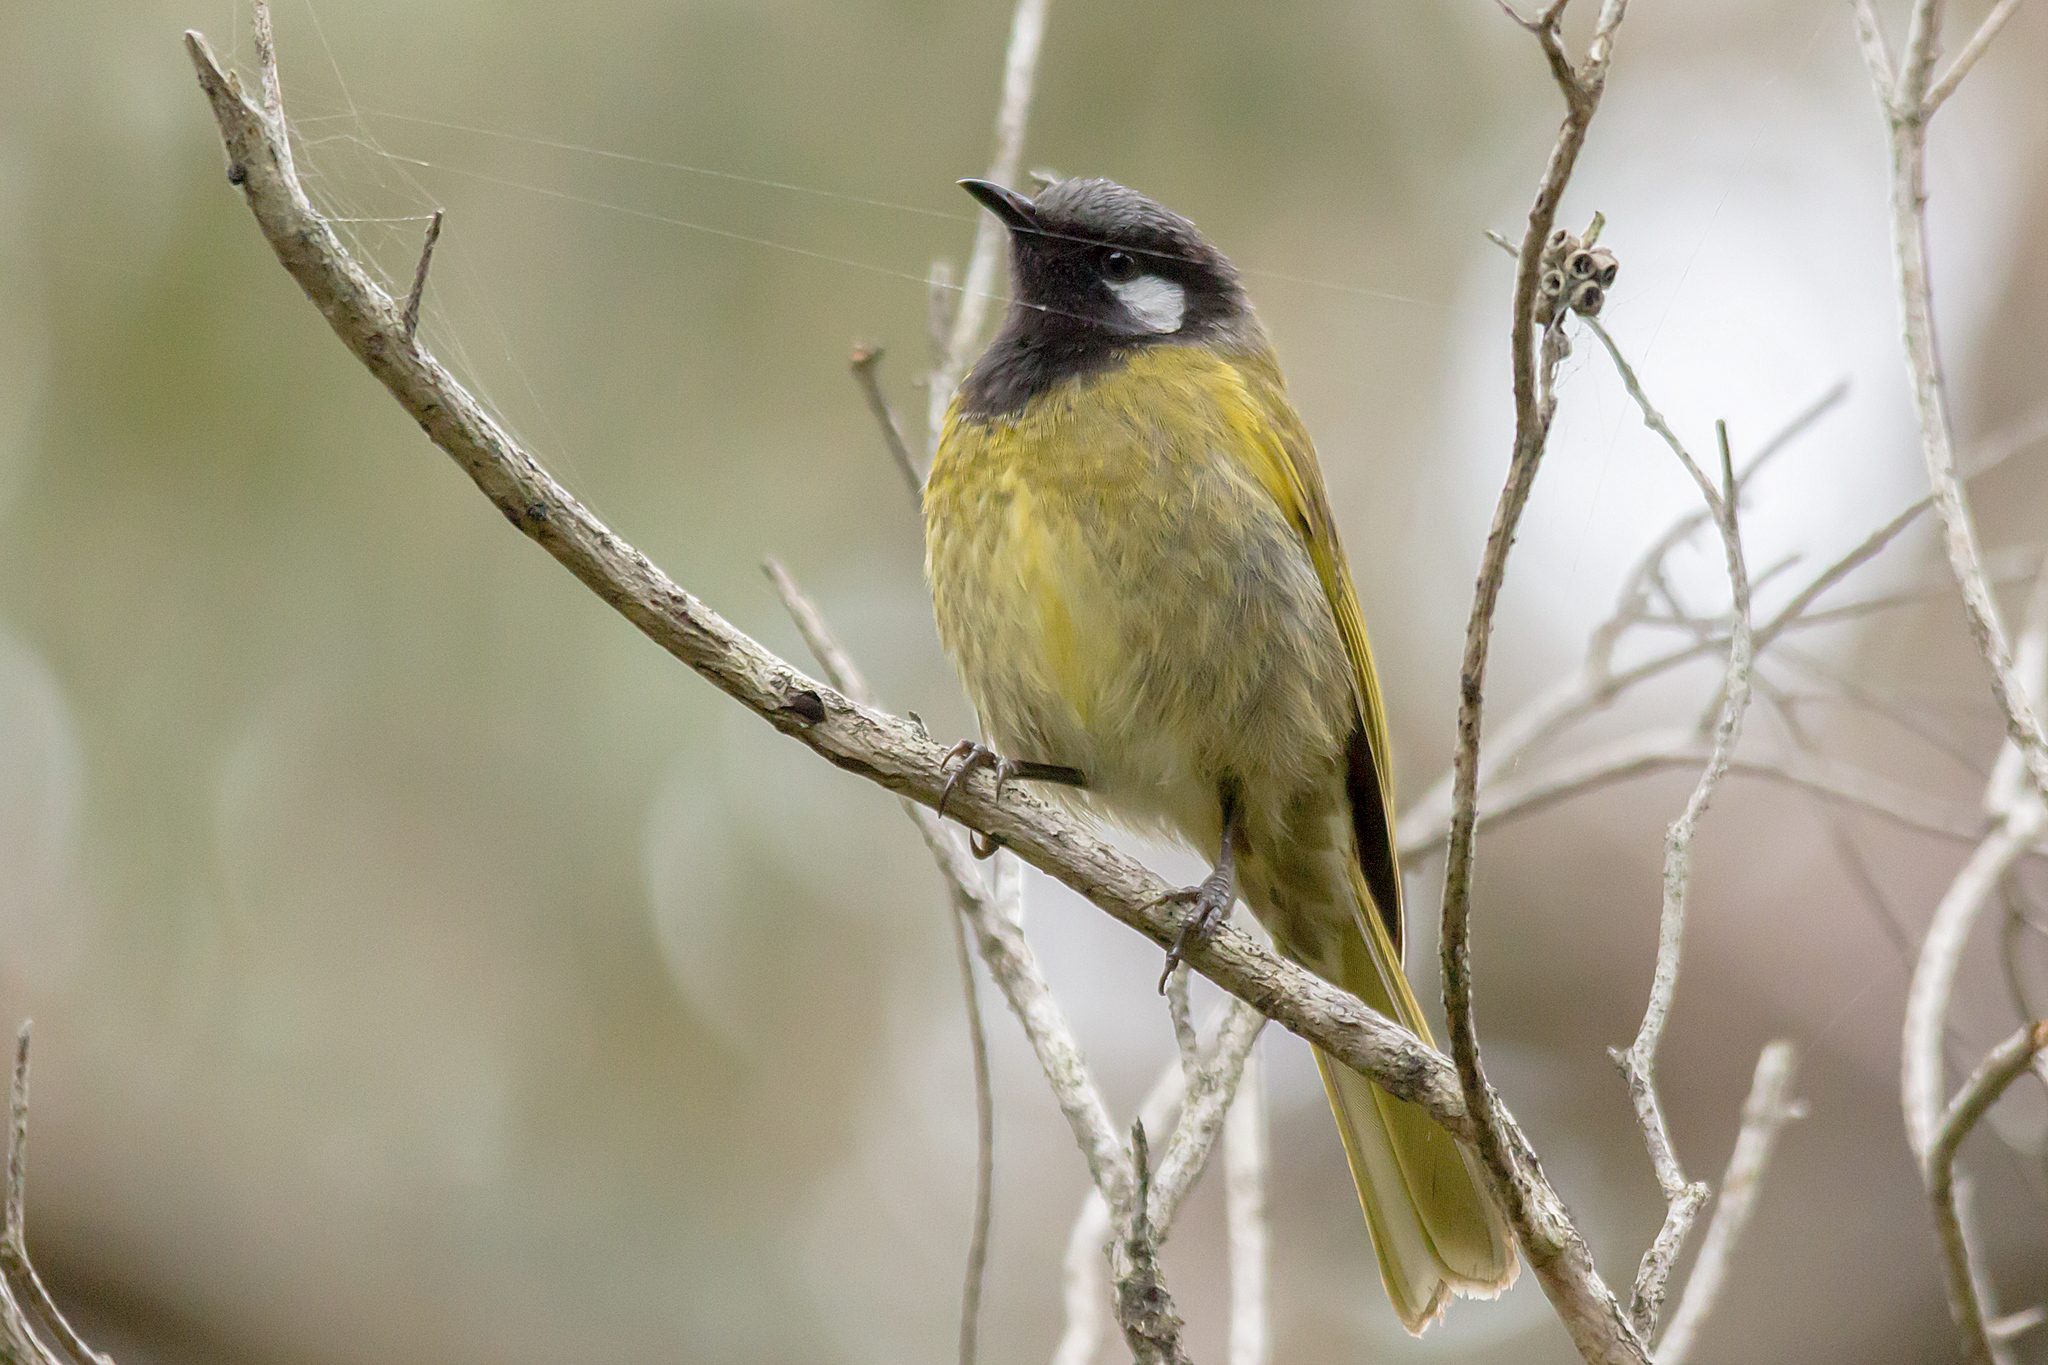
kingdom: Animalia
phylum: Chordata
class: Aves
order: Passeriformes
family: Meliphagidae
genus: Nesoptilotis
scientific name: Nesoptilotis leucotis
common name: White-eared honeyeater
